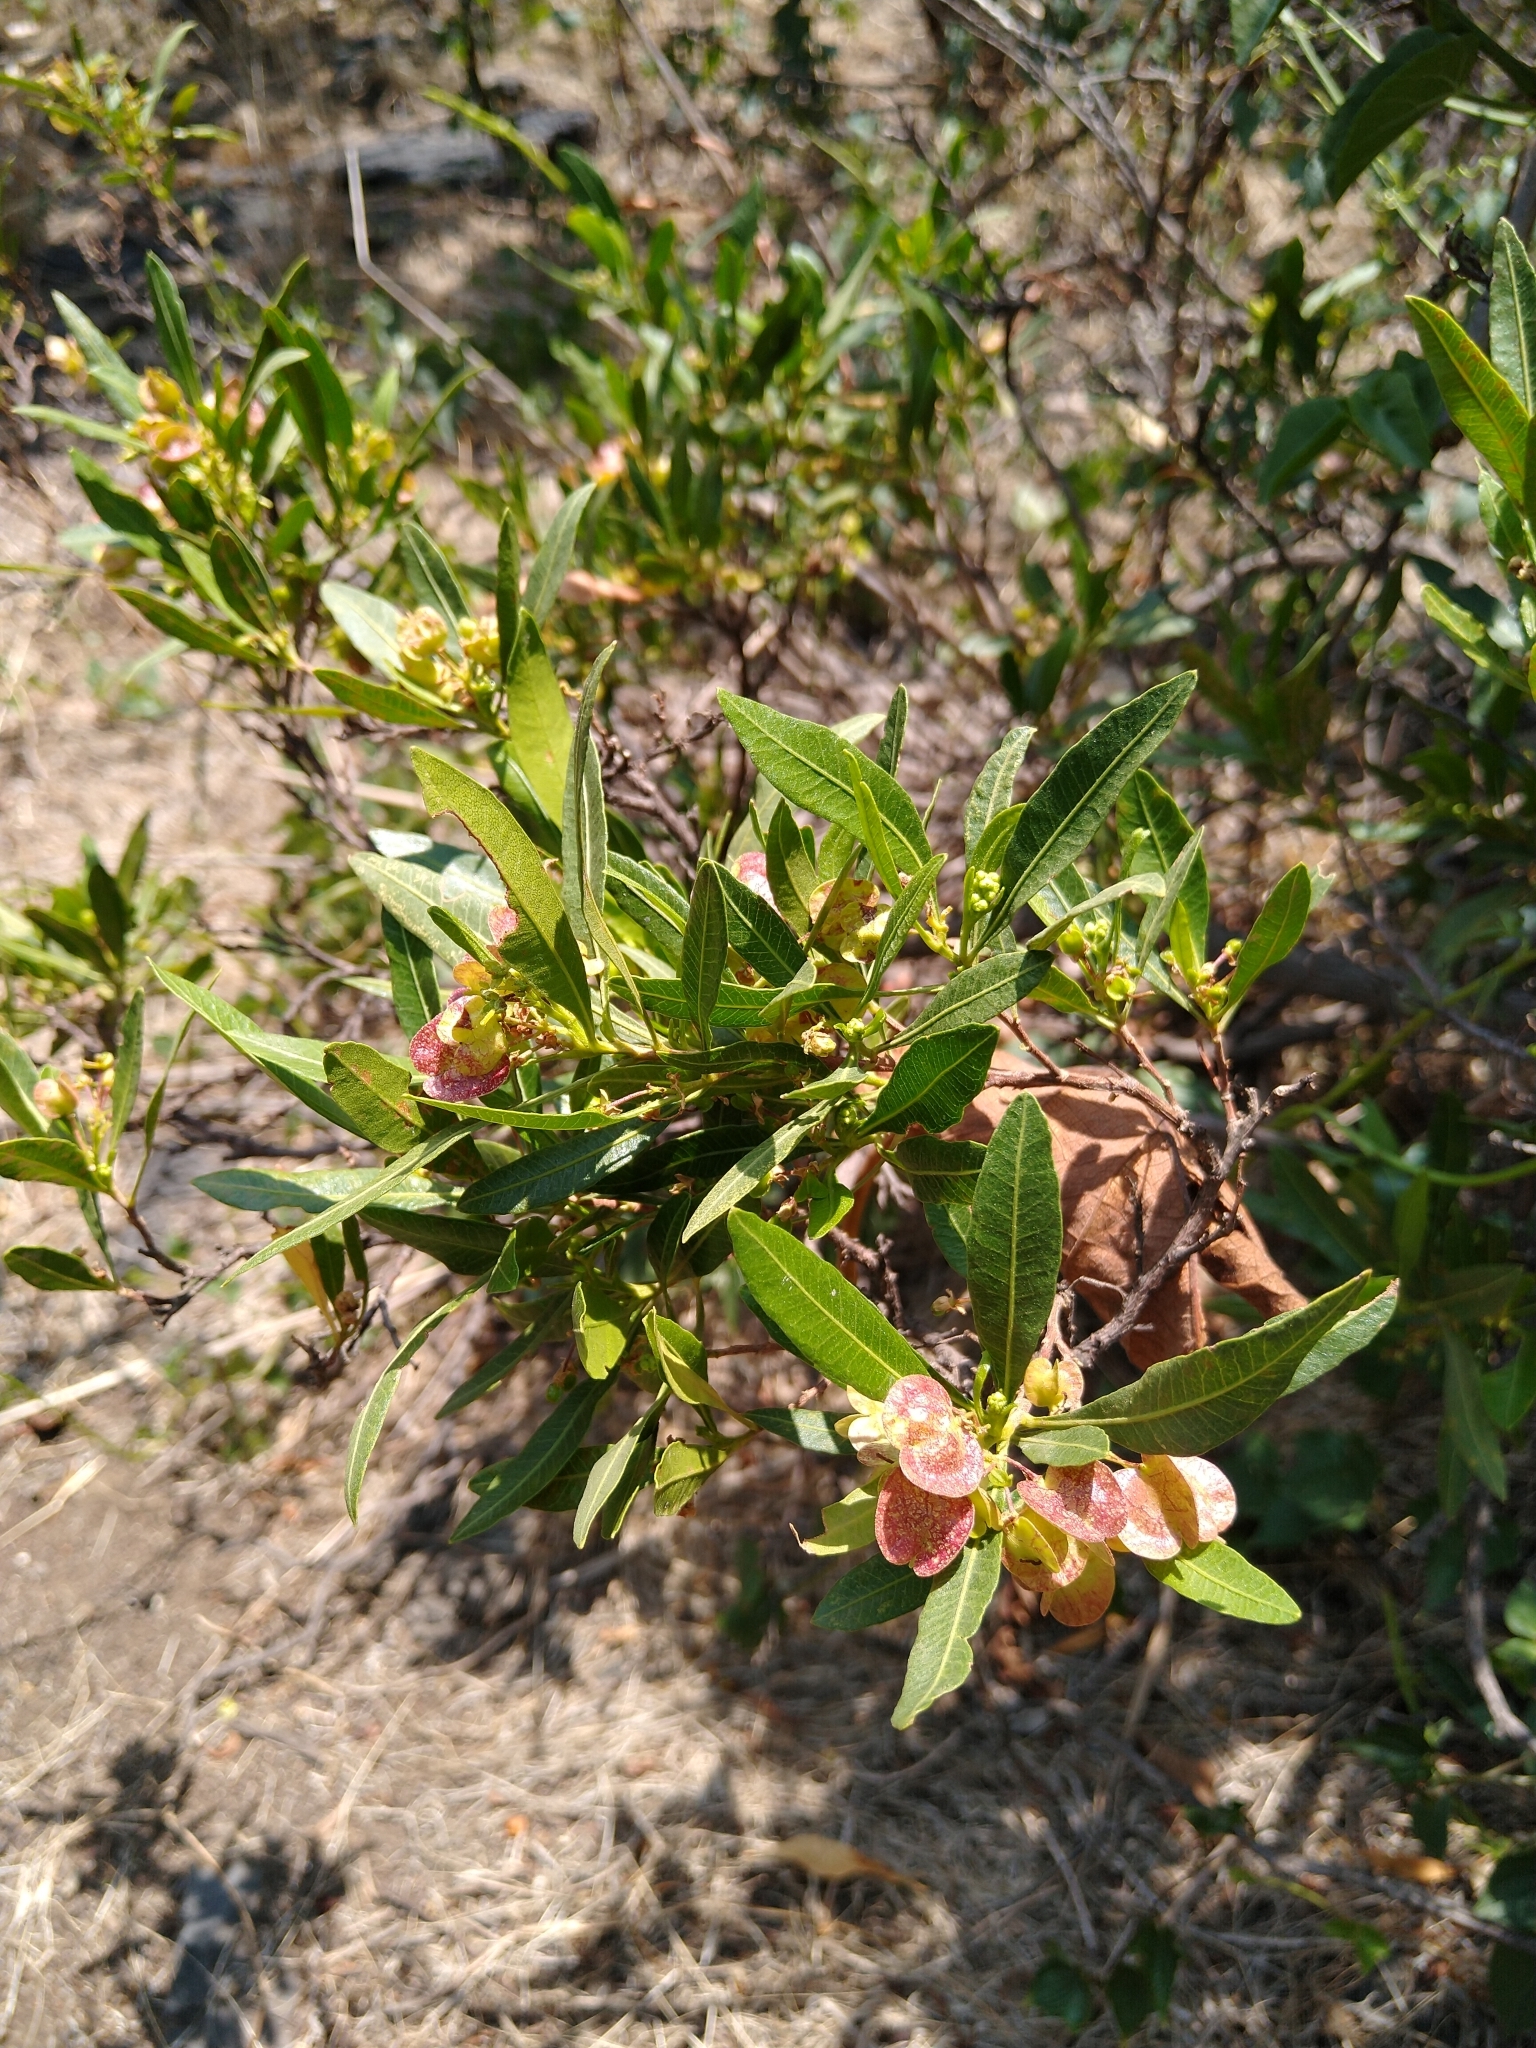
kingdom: Plantae
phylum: Tracheophyta
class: Magnoliopsida
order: Sapindales
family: Sapindaceae
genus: Dodonaea
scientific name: Dodonaea viscosa
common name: Hopbush
